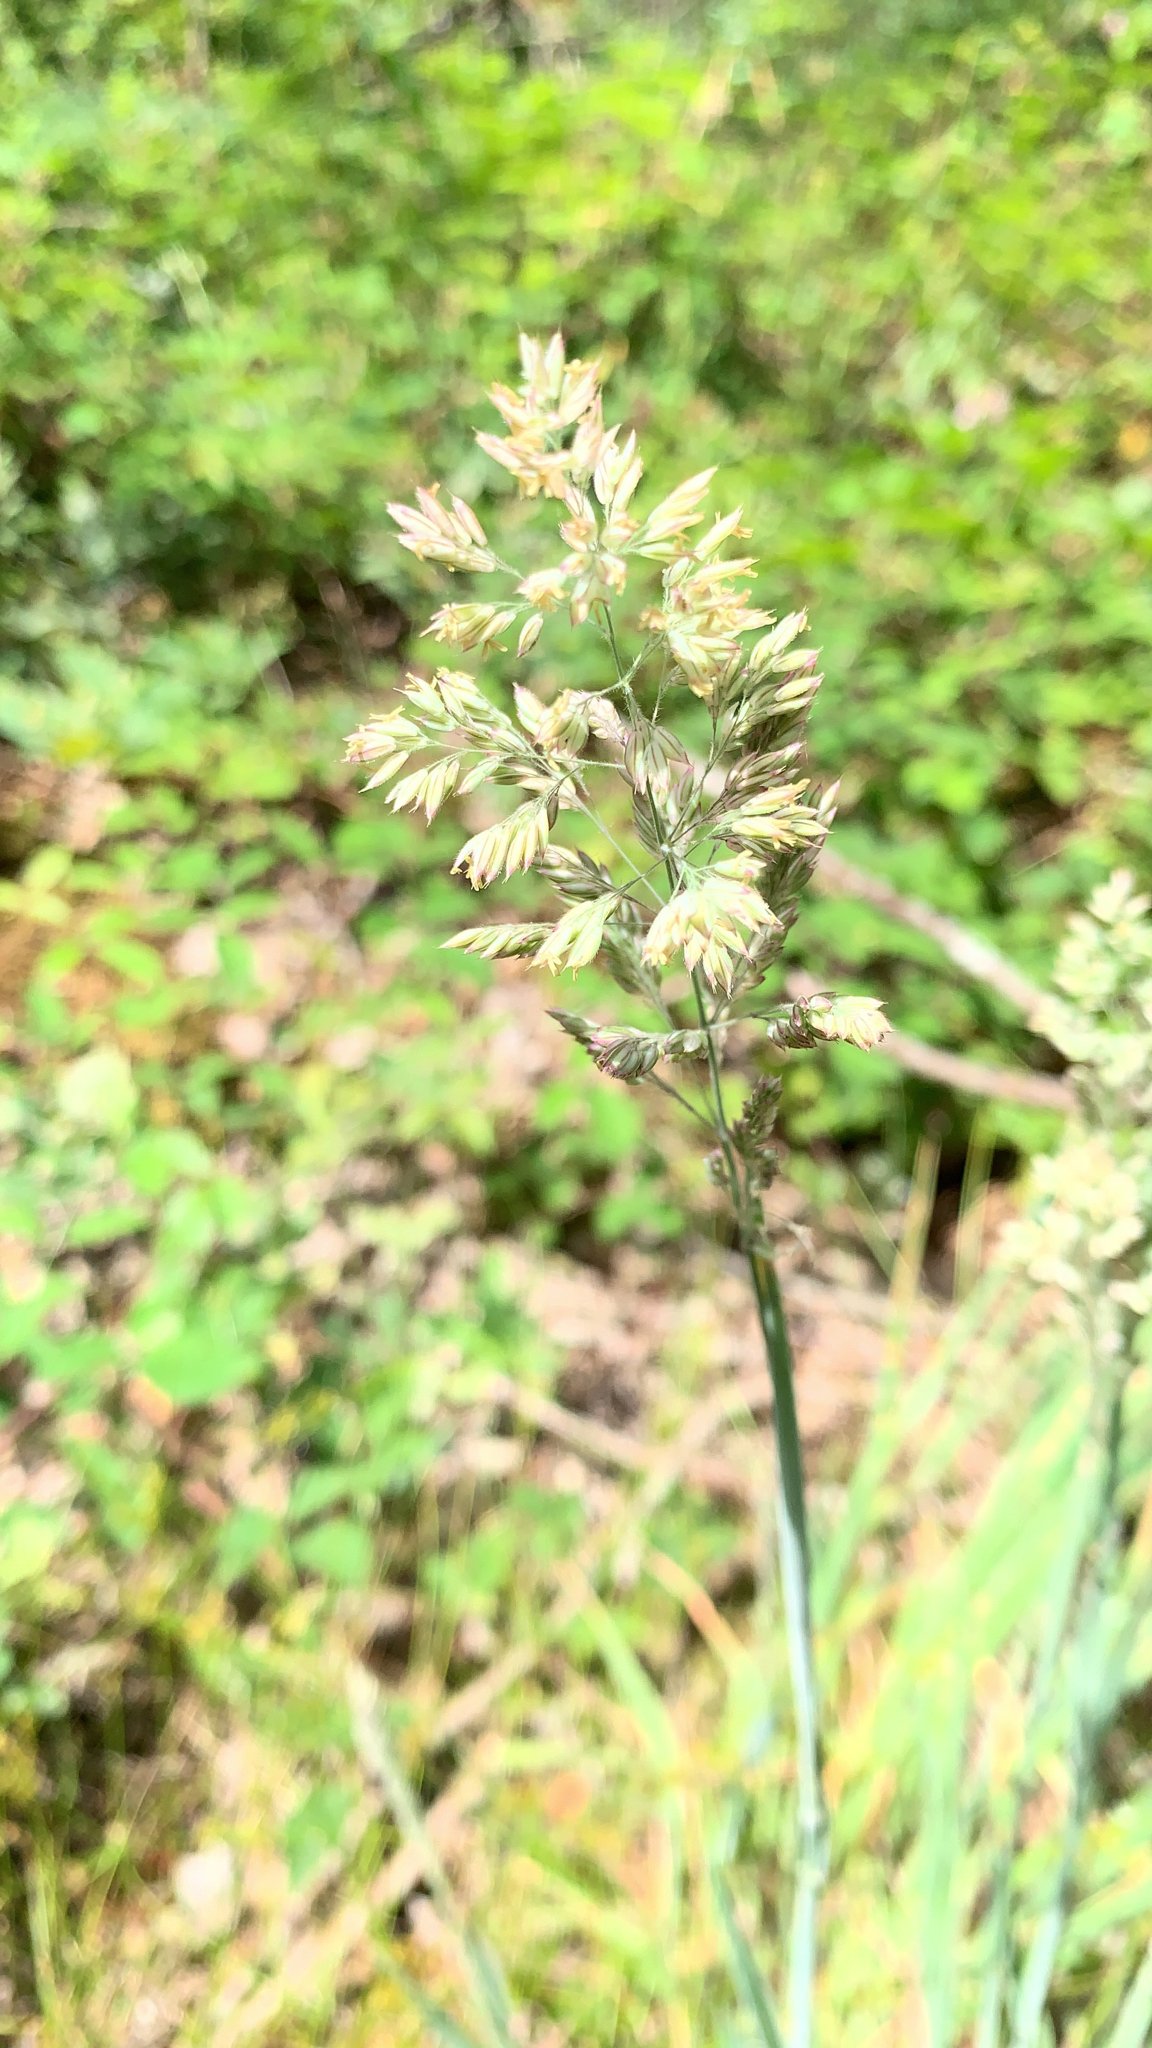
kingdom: Plantae
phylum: Tracheophyta
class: Liliopsida
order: Poales
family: Poaceae
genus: Holcus
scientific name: Holcus lanatus
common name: Yorkshire-fog
